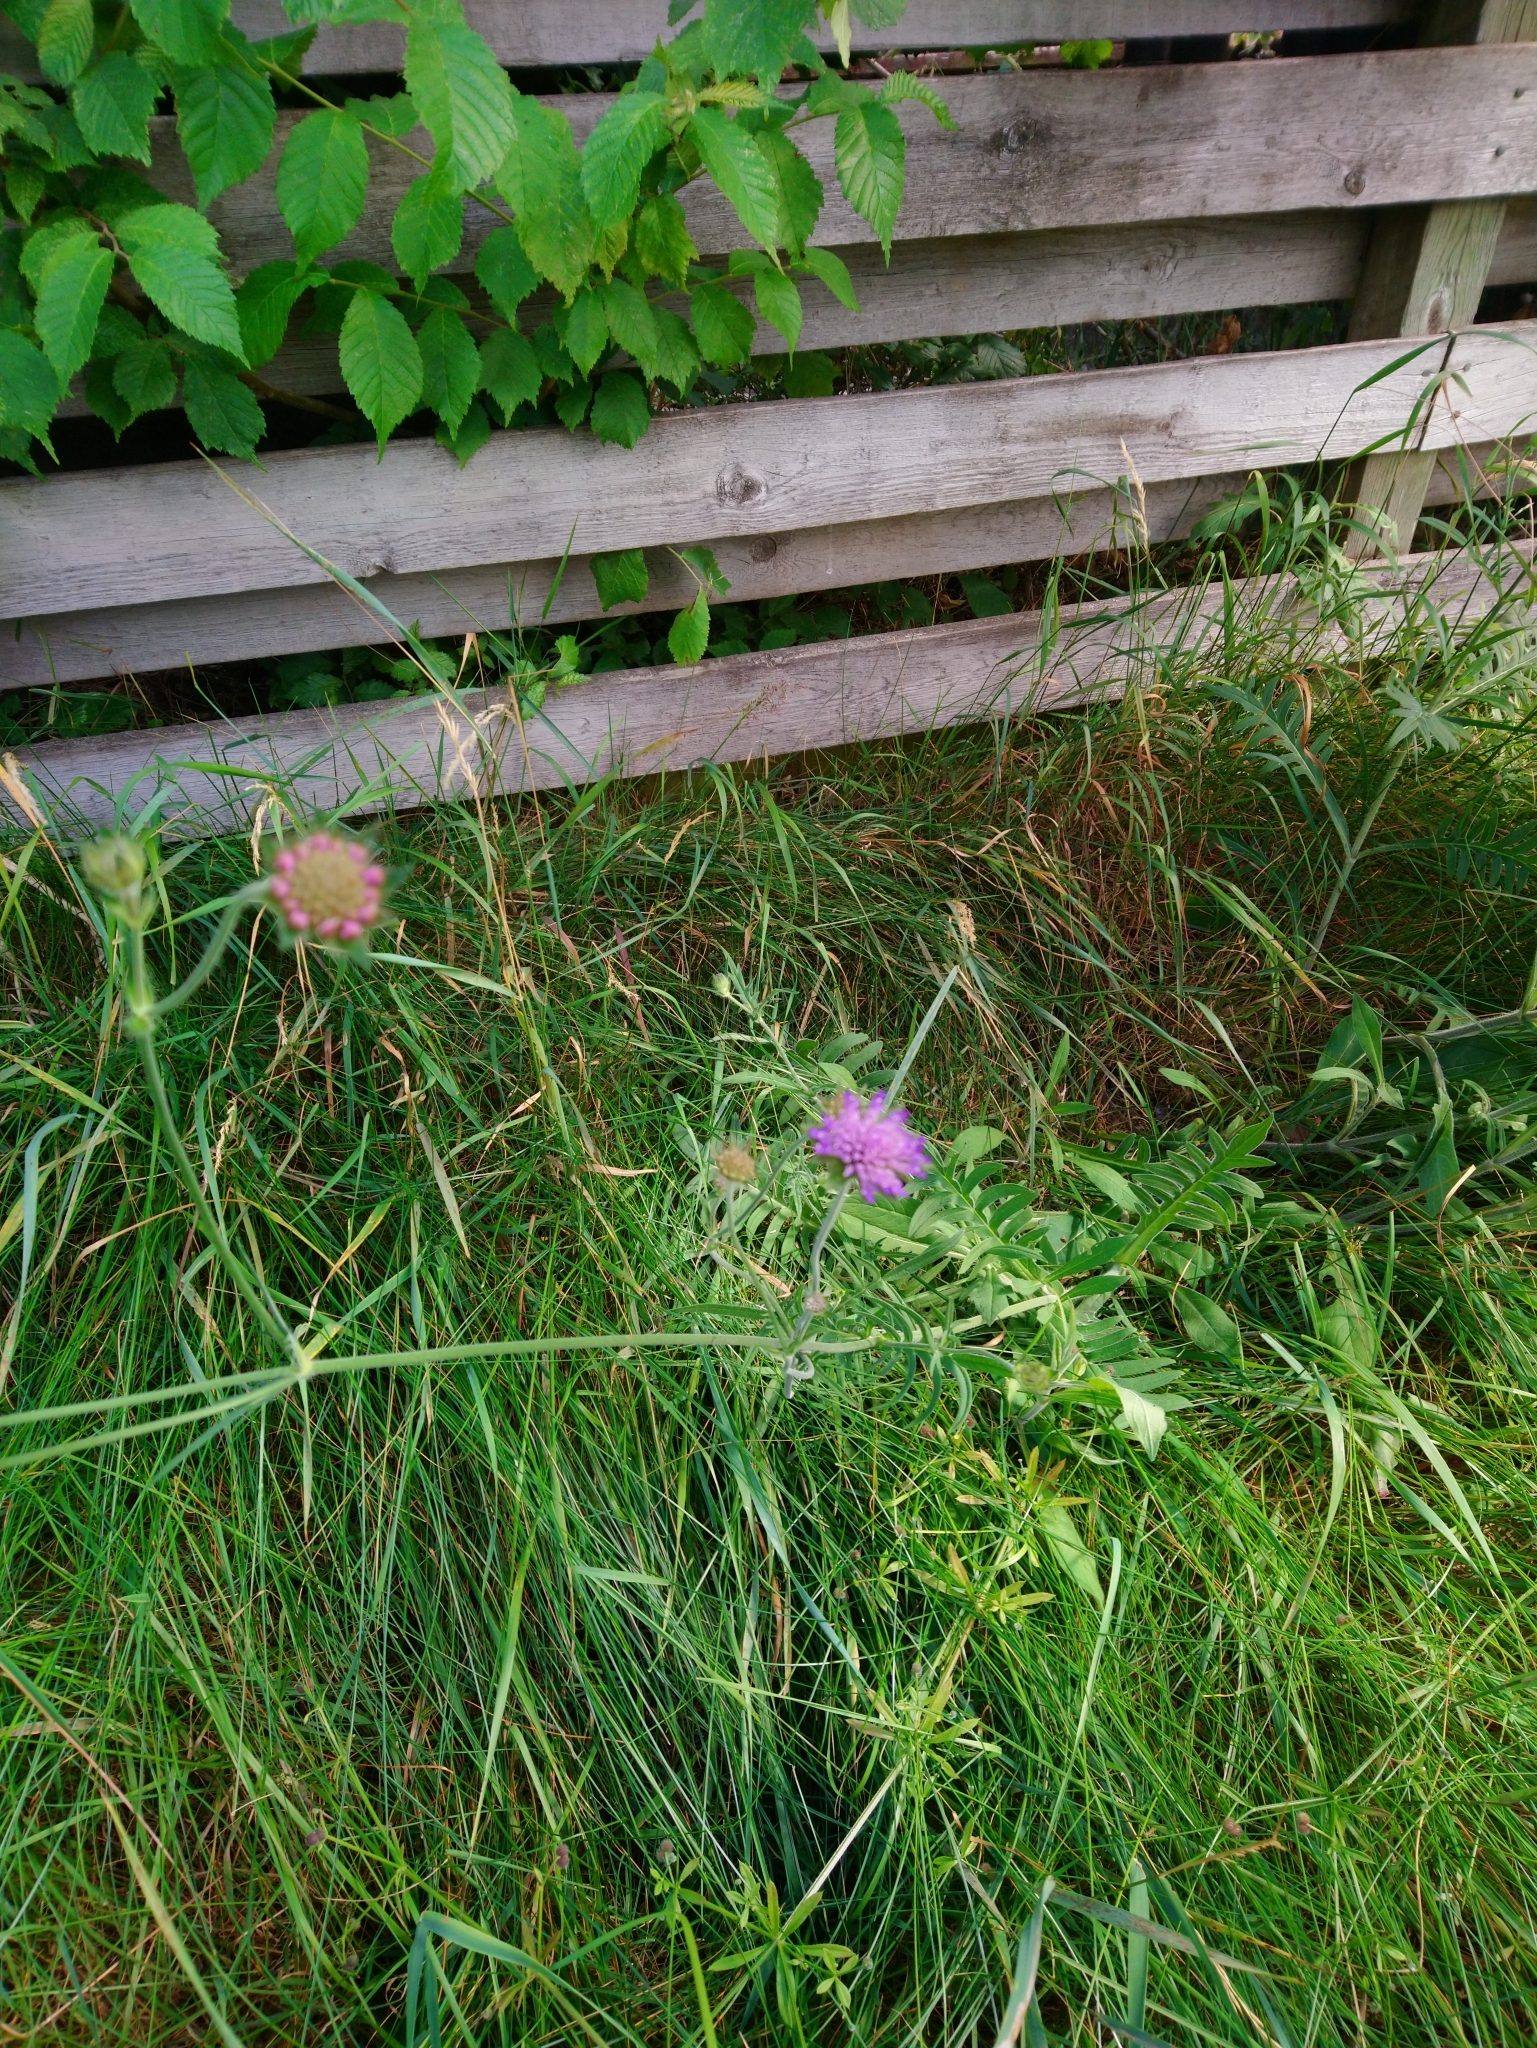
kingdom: Plantae
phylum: Tracheophyta
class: Magnoliopsida
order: Dipsacales
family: Caprifoliaceae
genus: Knautia
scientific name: Knautia arvensis
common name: Field scabiosa
